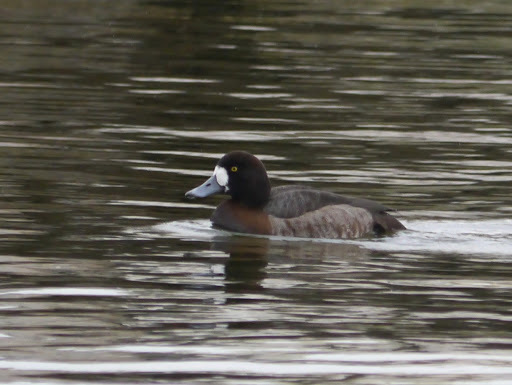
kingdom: Animalia
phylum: Chordata
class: Aves
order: Anseriformes
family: Anatidae
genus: Aythya
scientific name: Aythya marila
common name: Greater scaup
